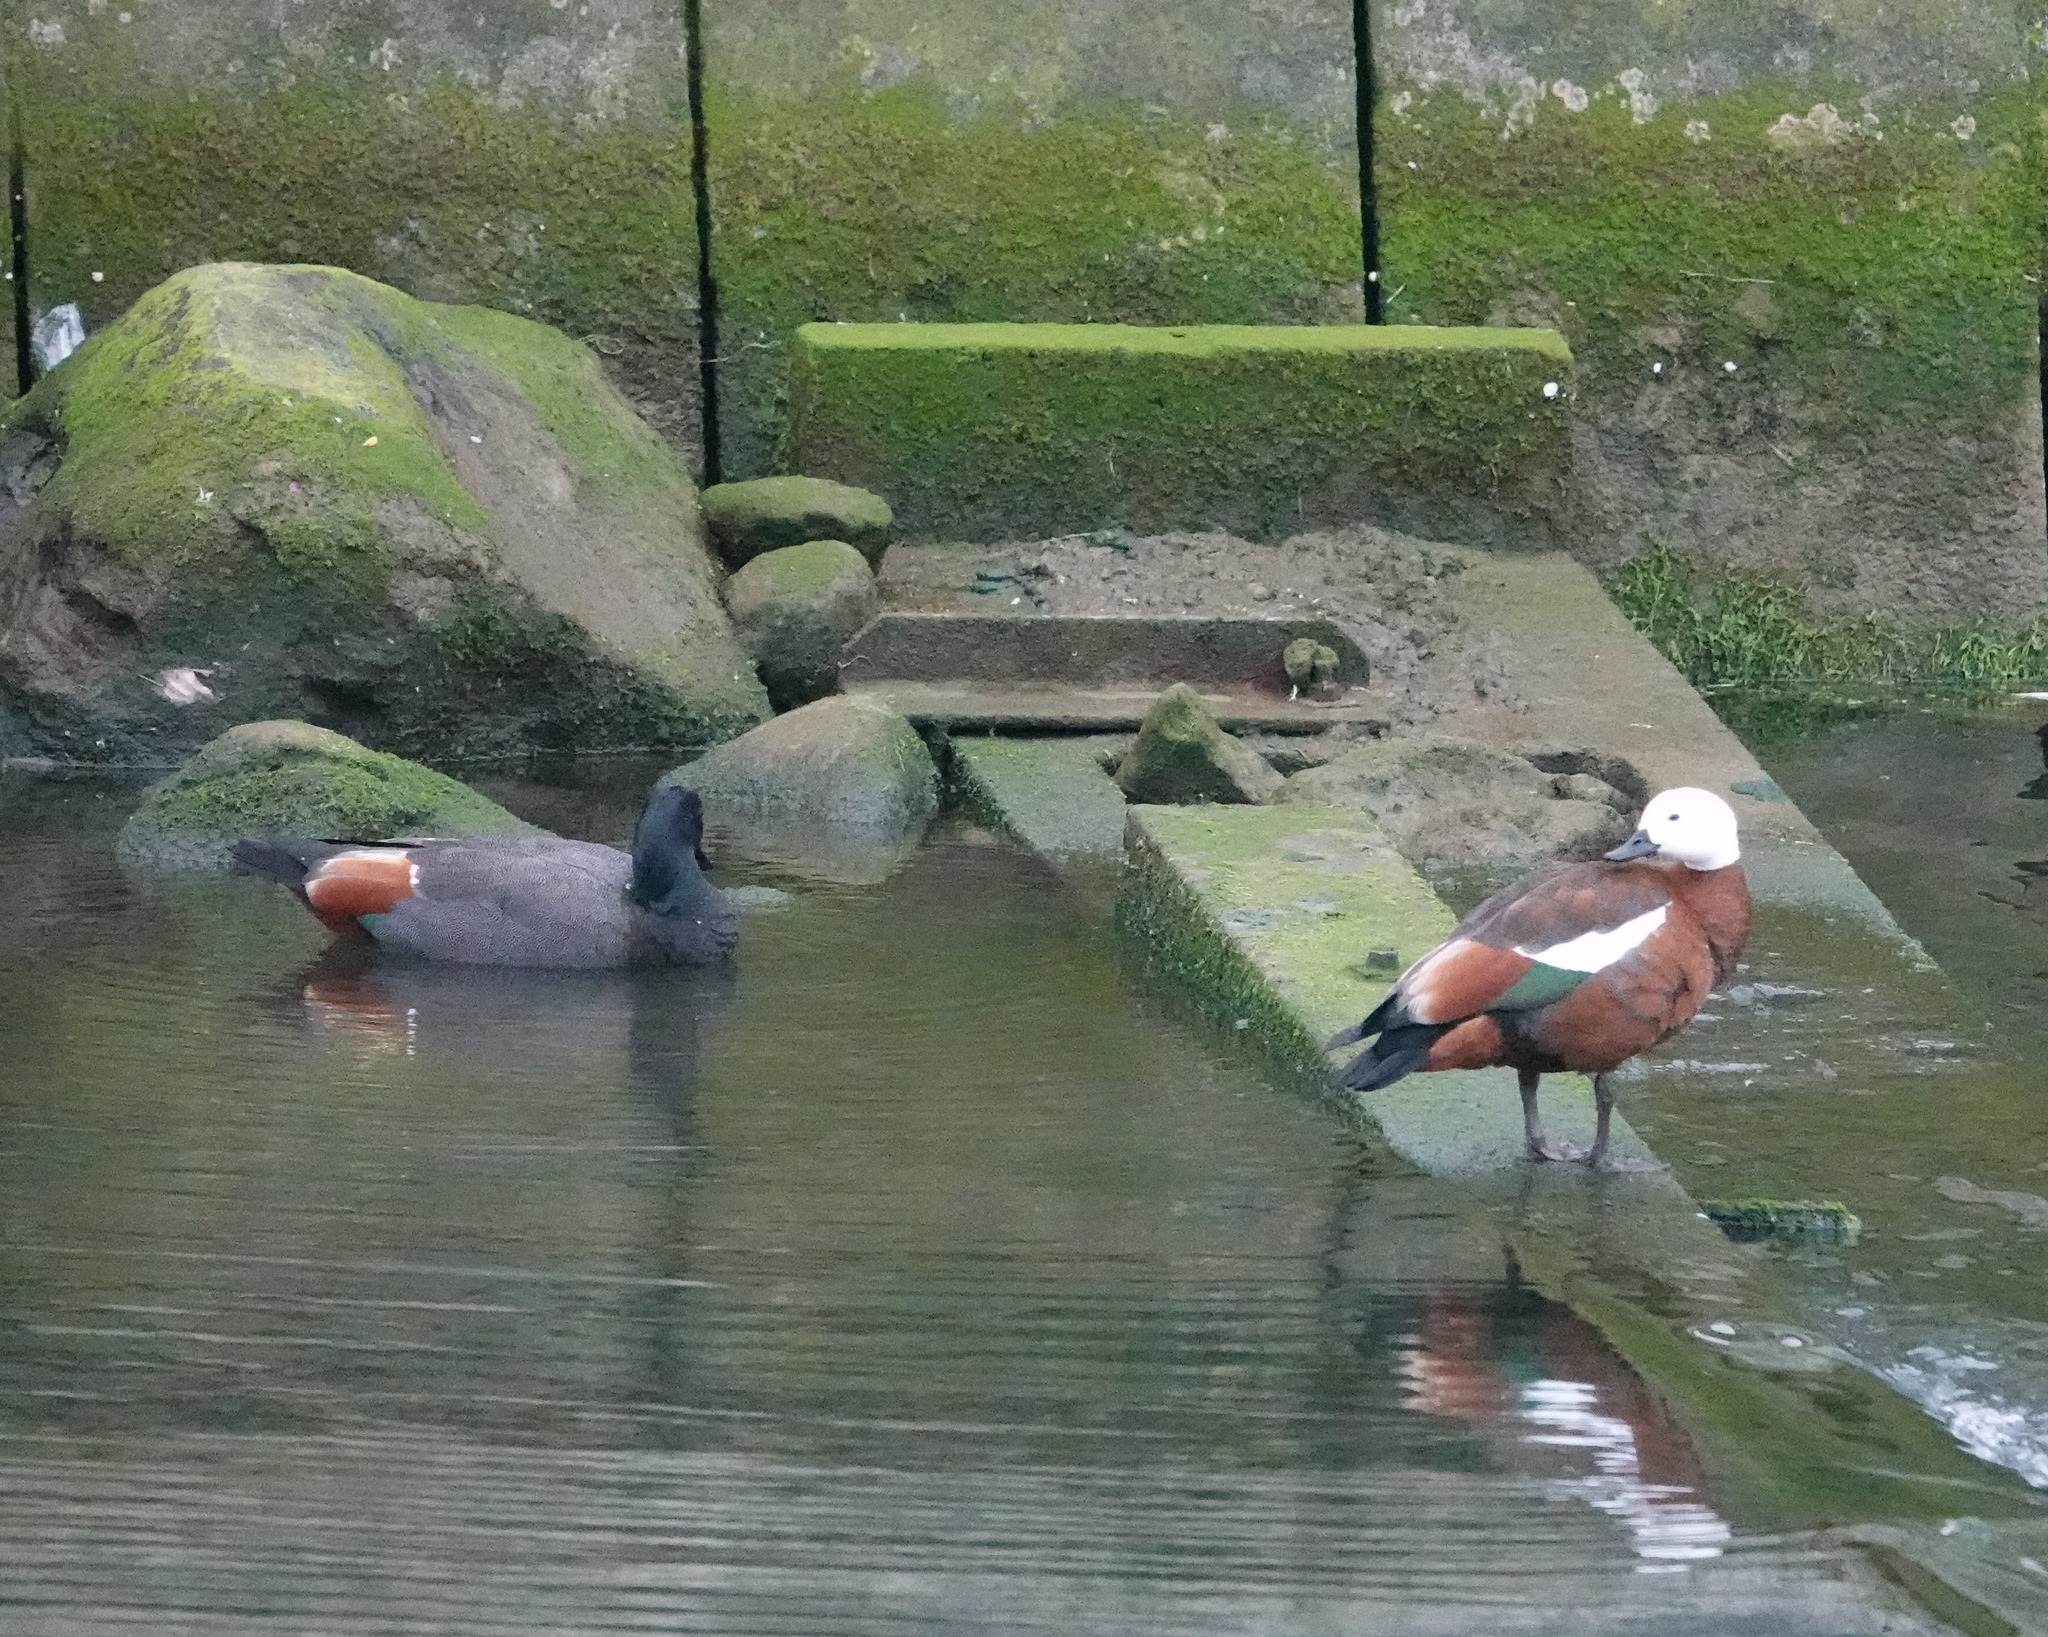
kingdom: Animalia
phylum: Chordata
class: Aves
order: Anseriformes
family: Anatidae
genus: Tadorna
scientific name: Tadorna variegata
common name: Paradise shelduck
